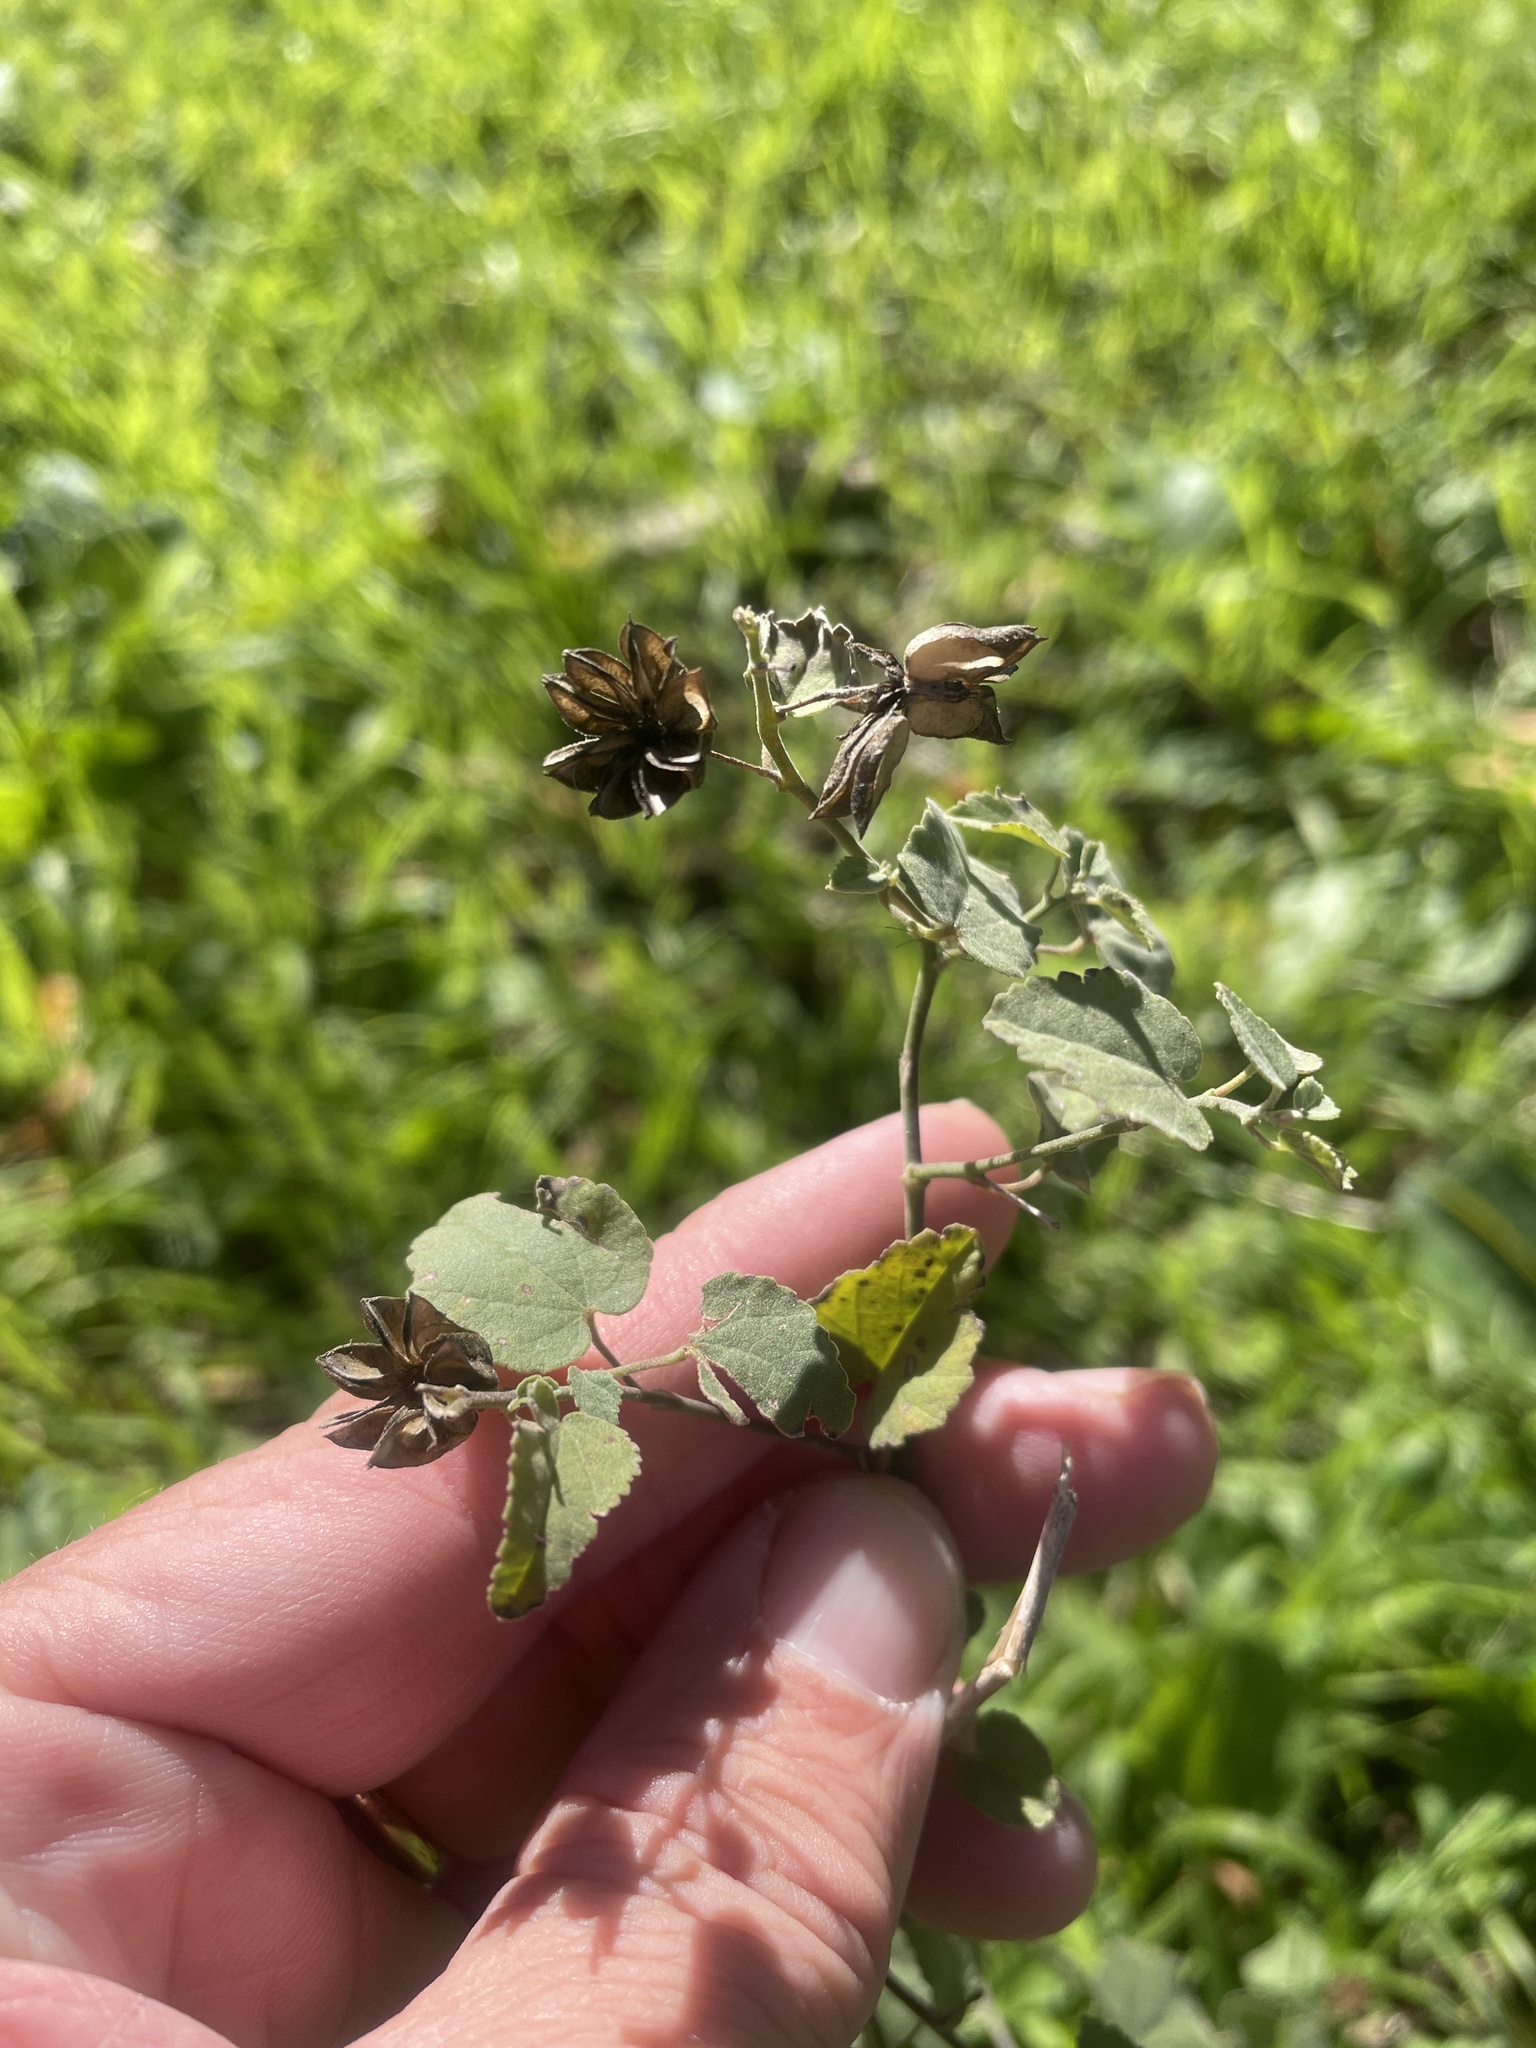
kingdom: Plantae
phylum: Tracheophyta
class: Magnoliopsida
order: Malvales
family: Malvaceae
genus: Abutilon
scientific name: Abutilon fruticosum
